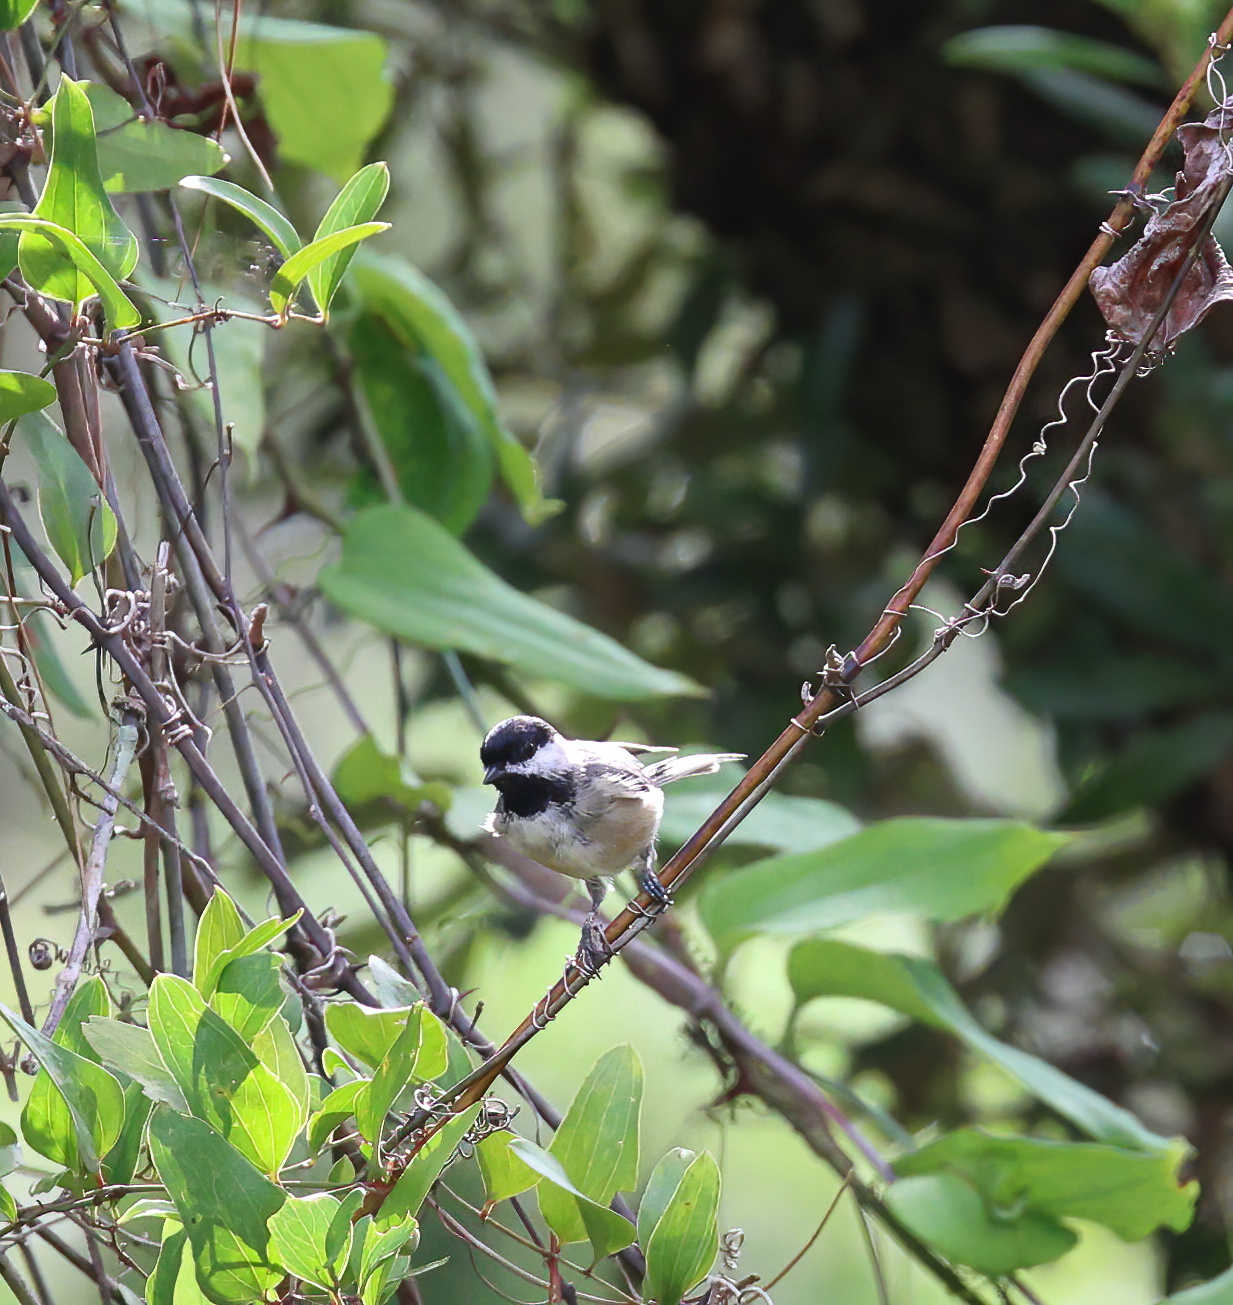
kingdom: Animalia
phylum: Chordata
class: Aves
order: Passeriformes
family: Paridae
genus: Poecile
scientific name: Poecile carolinensis
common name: Carolina chickadee
